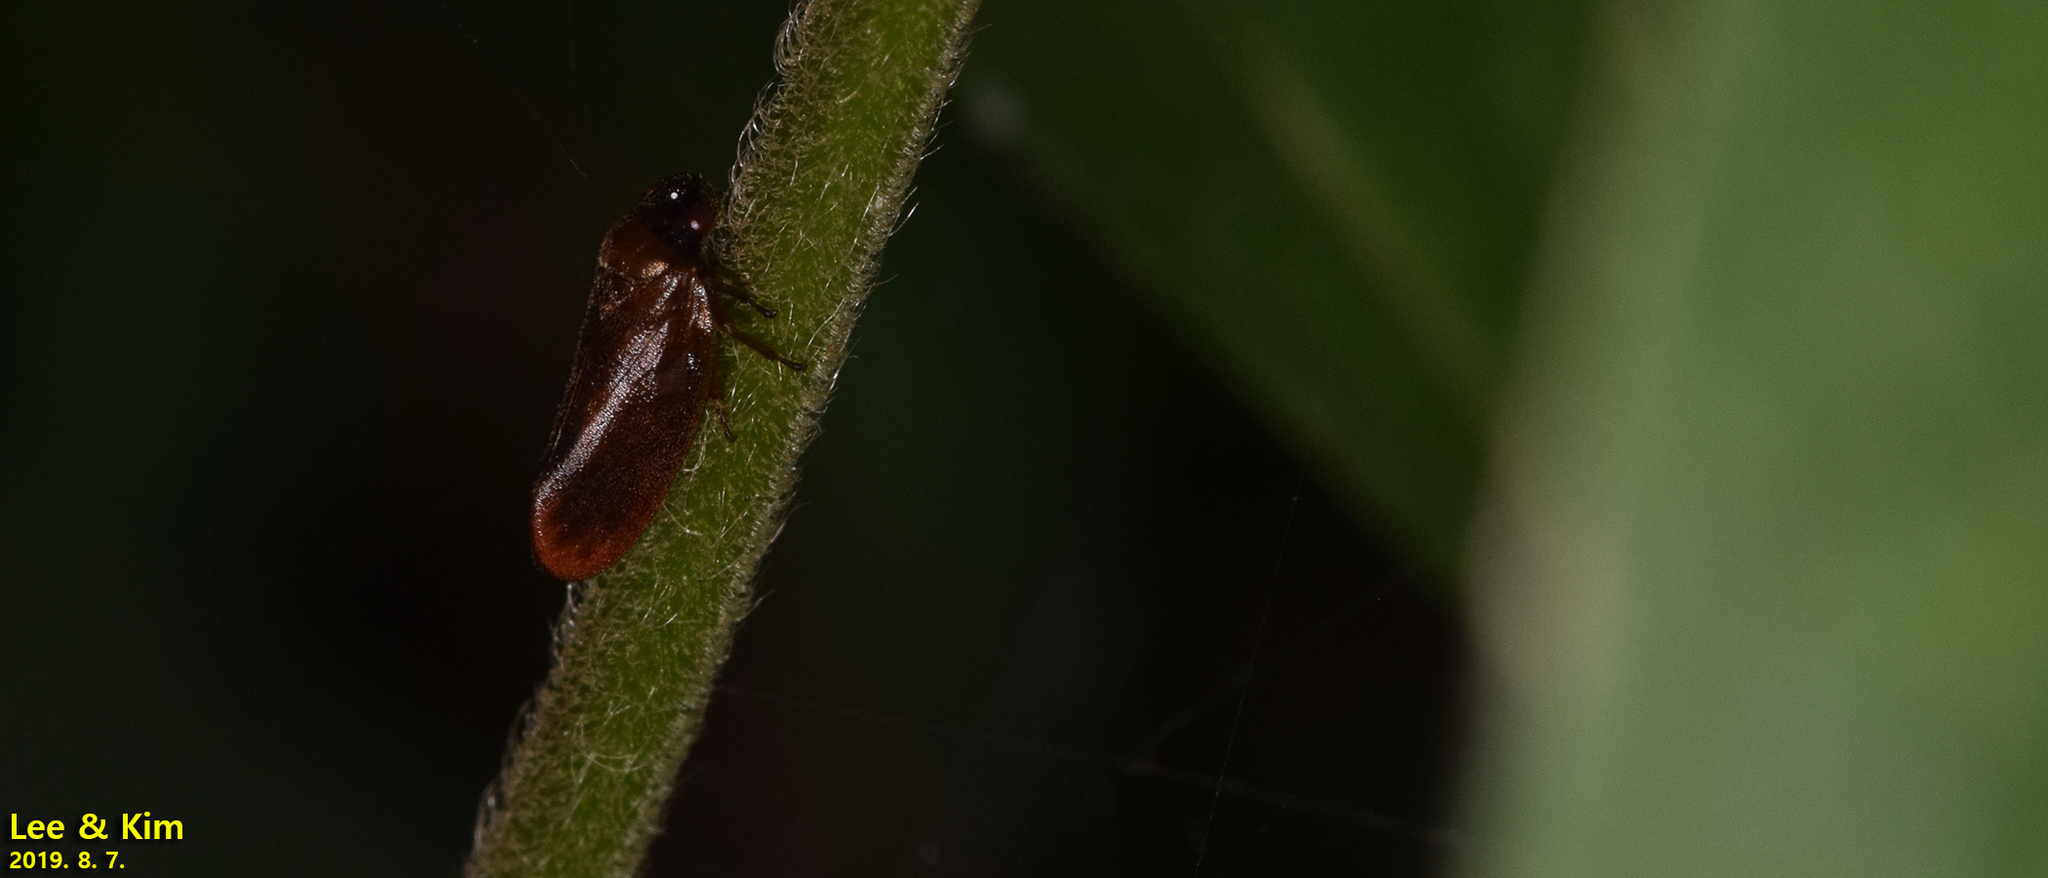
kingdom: Animalia
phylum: Arthropoda
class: Insecta
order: Hemiptera
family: Cercopidae
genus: Eoscarta
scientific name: Eoscarta assimilis
